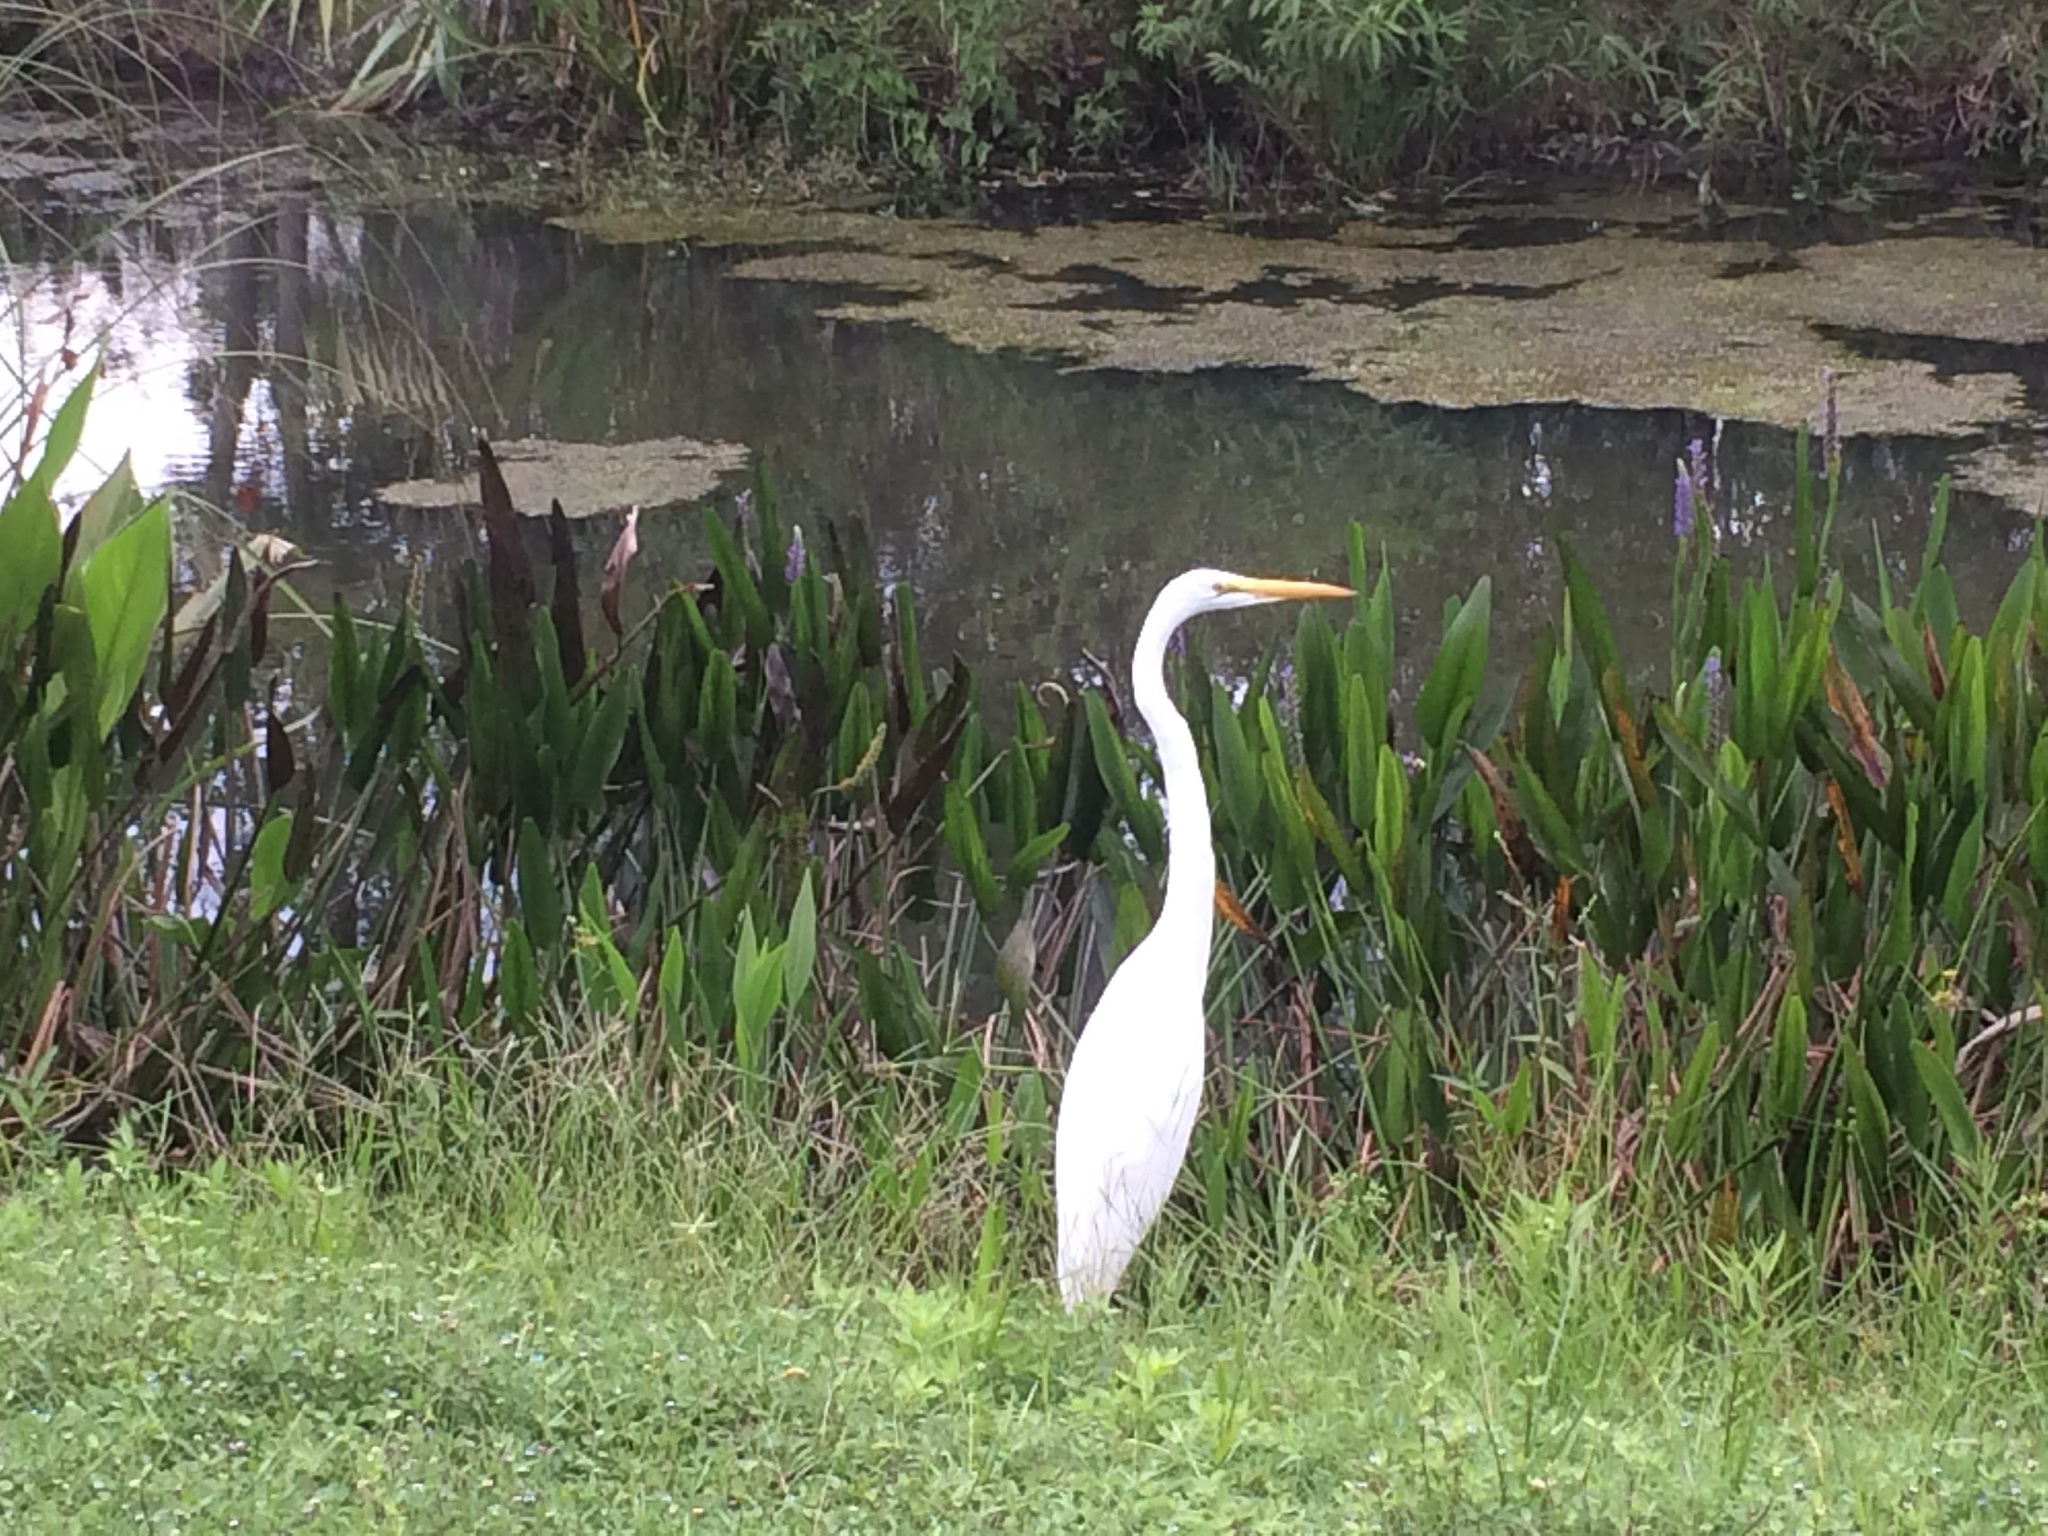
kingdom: Animalia
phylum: Chordata
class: Aves
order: Pelecaniformes
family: Ardeidae
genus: Ardea
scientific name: Ardea alba
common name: Great egret
